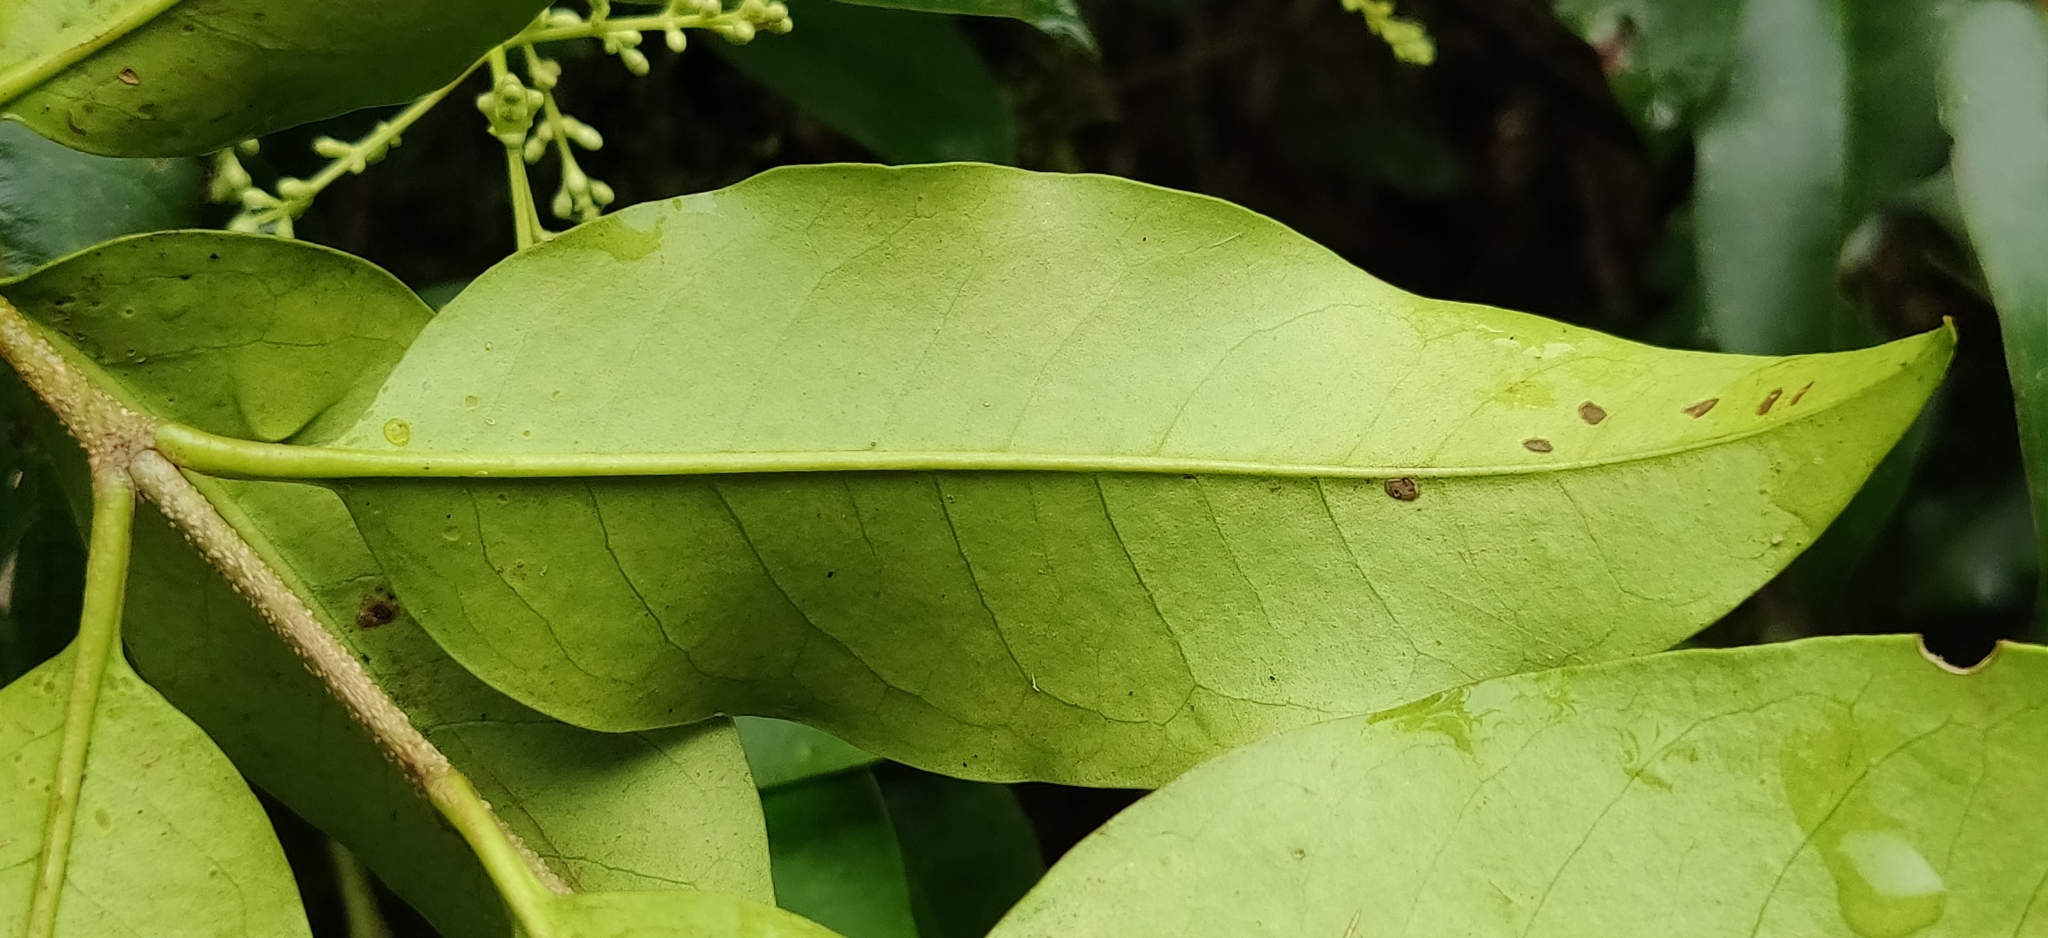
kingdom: Plantae
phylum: Tracheophyta
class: Magnoliopsida
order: Lamiales
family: Oleaceae
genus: Ligustrum
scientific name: Ligustrum robustum
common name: Tree privet
